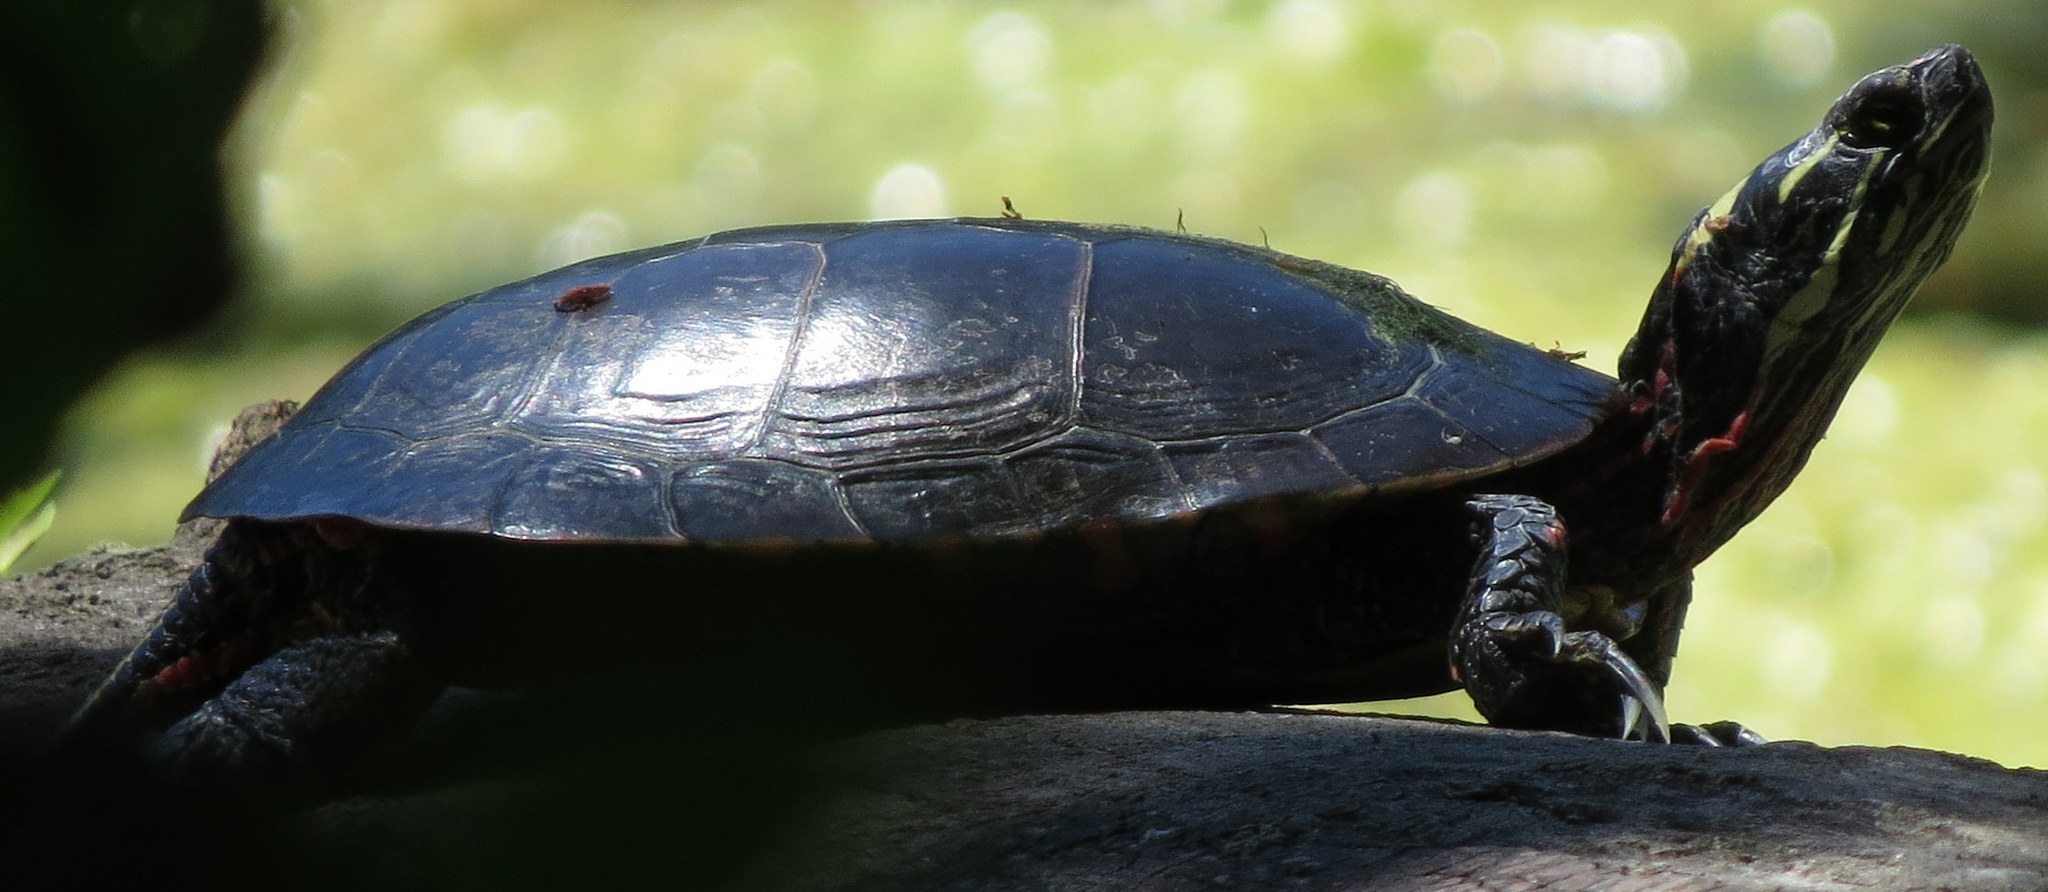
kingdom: Animalia
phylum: Chordata
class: Testudines
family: Emydidae
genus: Chrysemys
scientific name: Chrysemys picta
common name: Painted turtle
